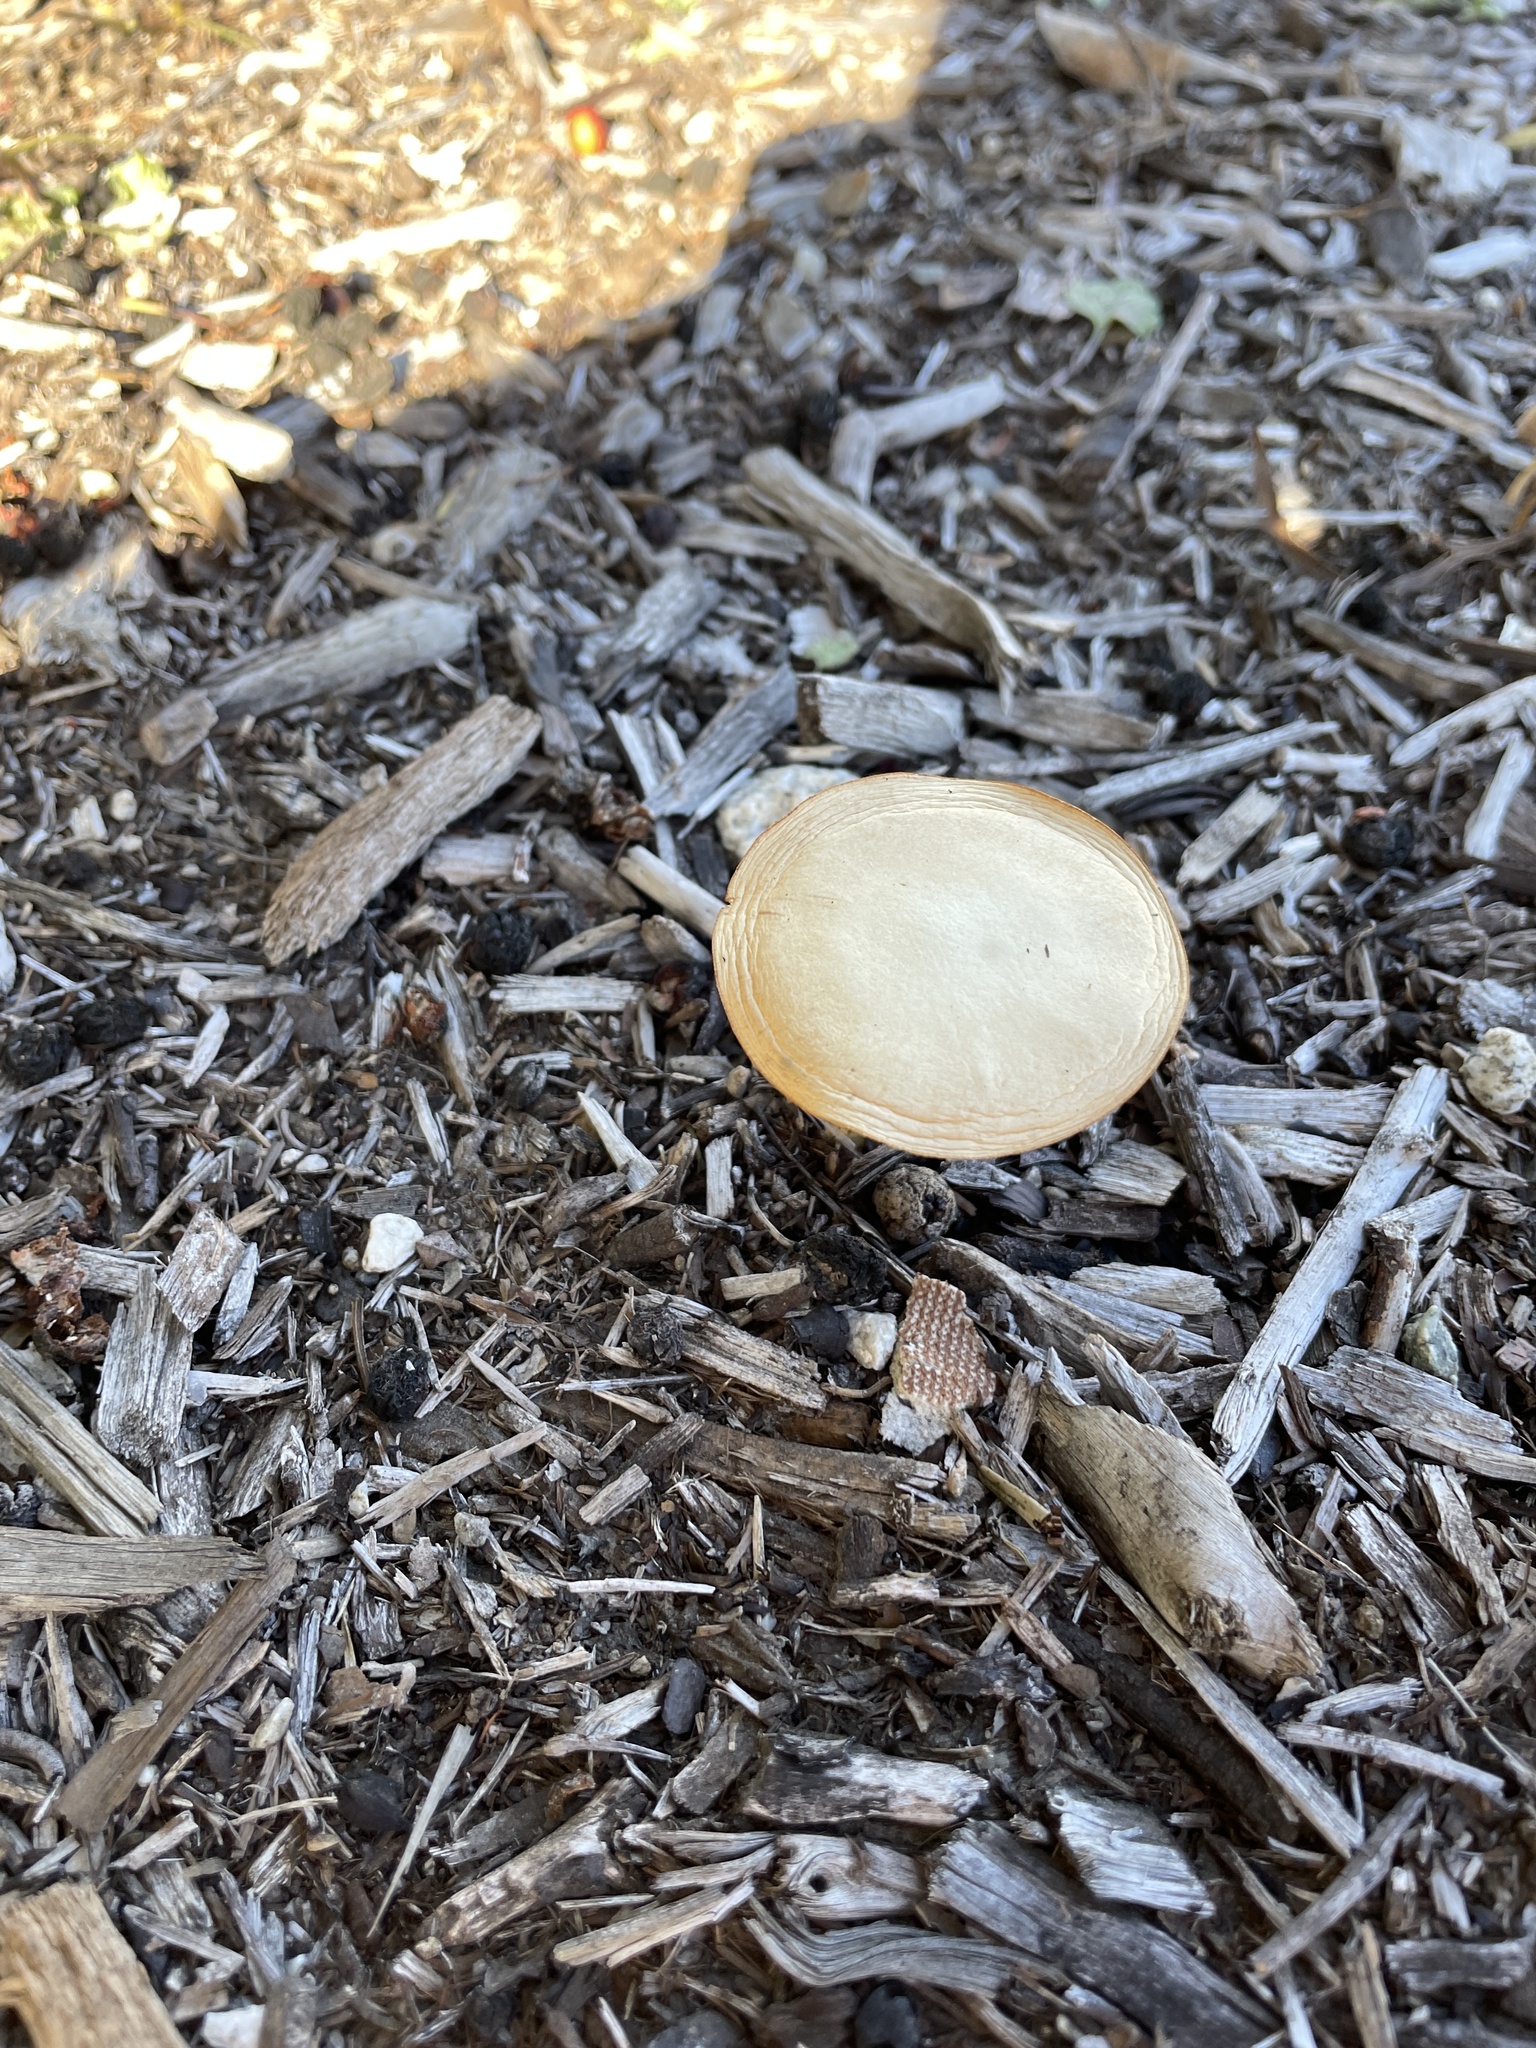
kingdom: Fungi
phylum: Basidiomycota
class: Agaricomycetes
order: Agaricales
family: Strophariaceae
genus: Agrocybe
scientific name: Agrocybe pediades
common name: Common fieldcap
